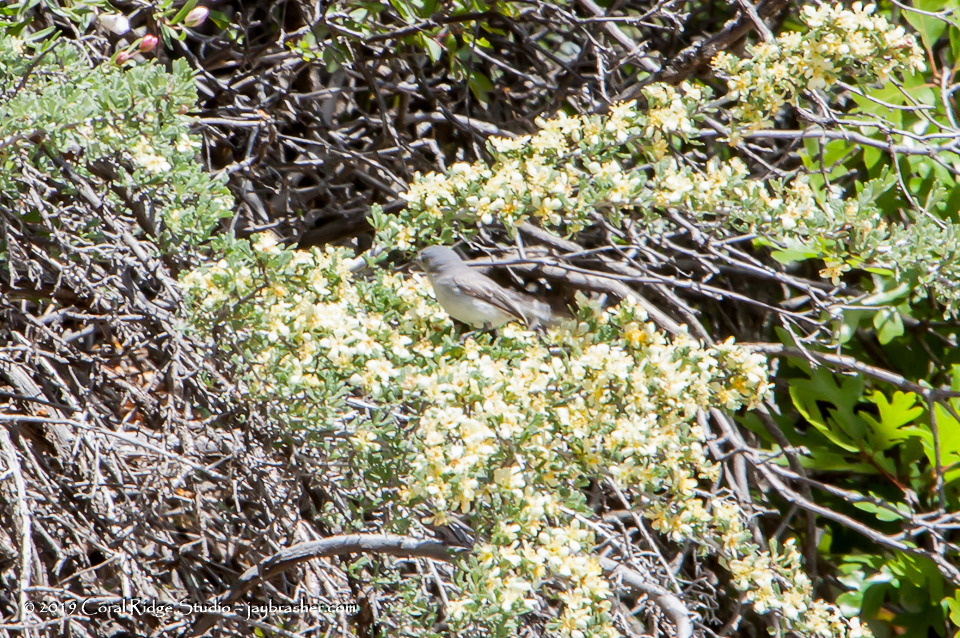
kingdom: Animalia
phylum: Chordata
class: Aves
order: Passeriformes
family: Polioptilidae
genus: Polioptila
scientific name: Polioptila caerulea
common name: Blue-gray gnatcatcher
